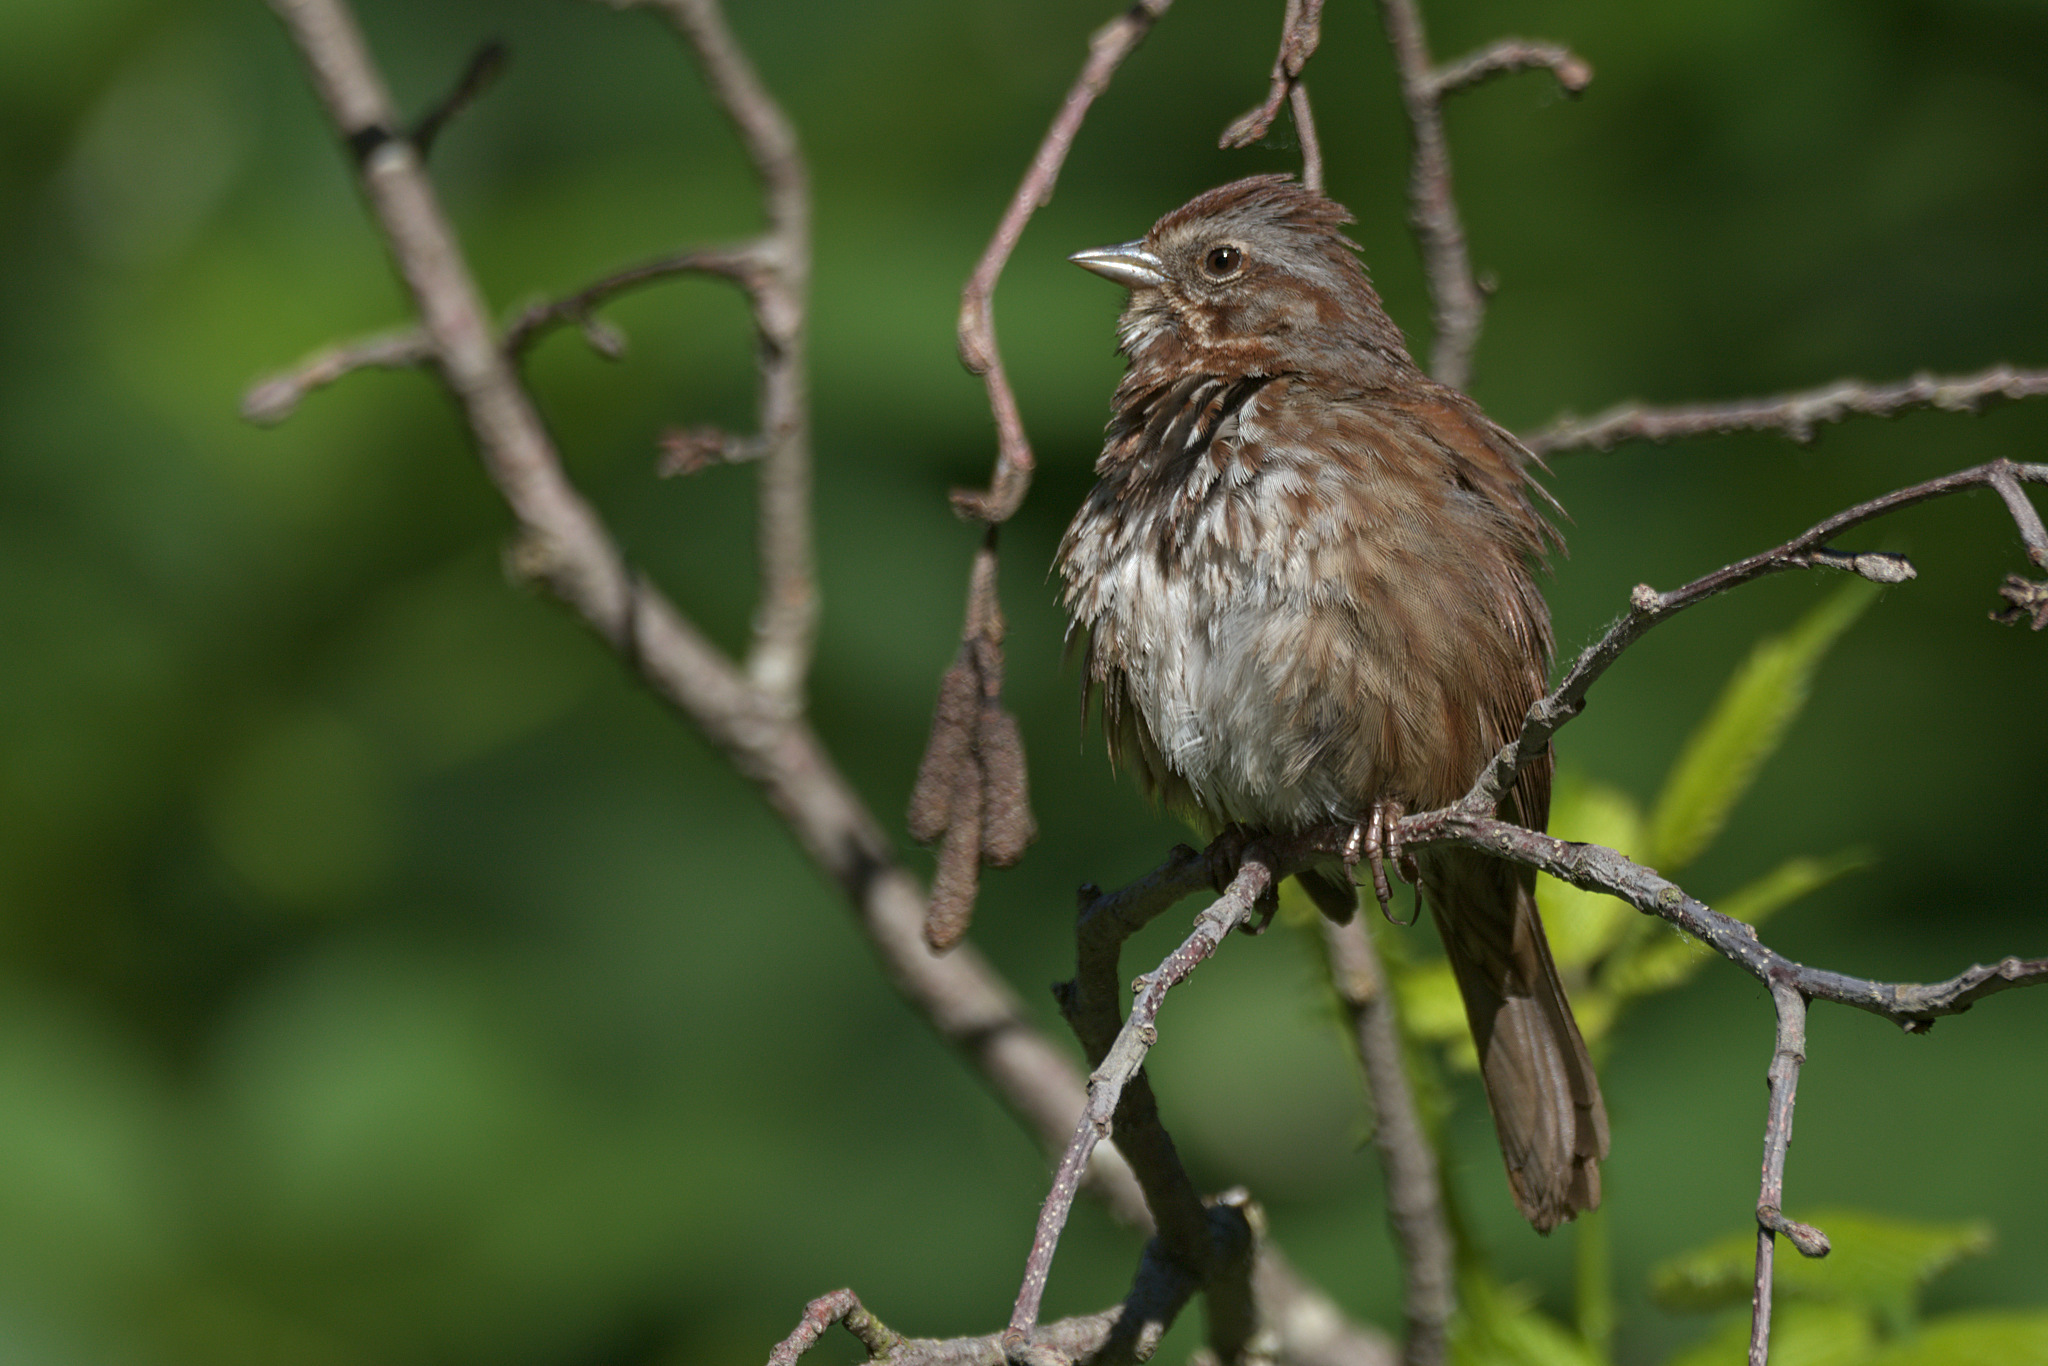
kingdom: Animalia
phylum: Chordata
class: Aves
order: Passeriformes
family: Passerellidae
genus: Melospiza
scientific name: Melospiza melodia
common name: Song sparrow
